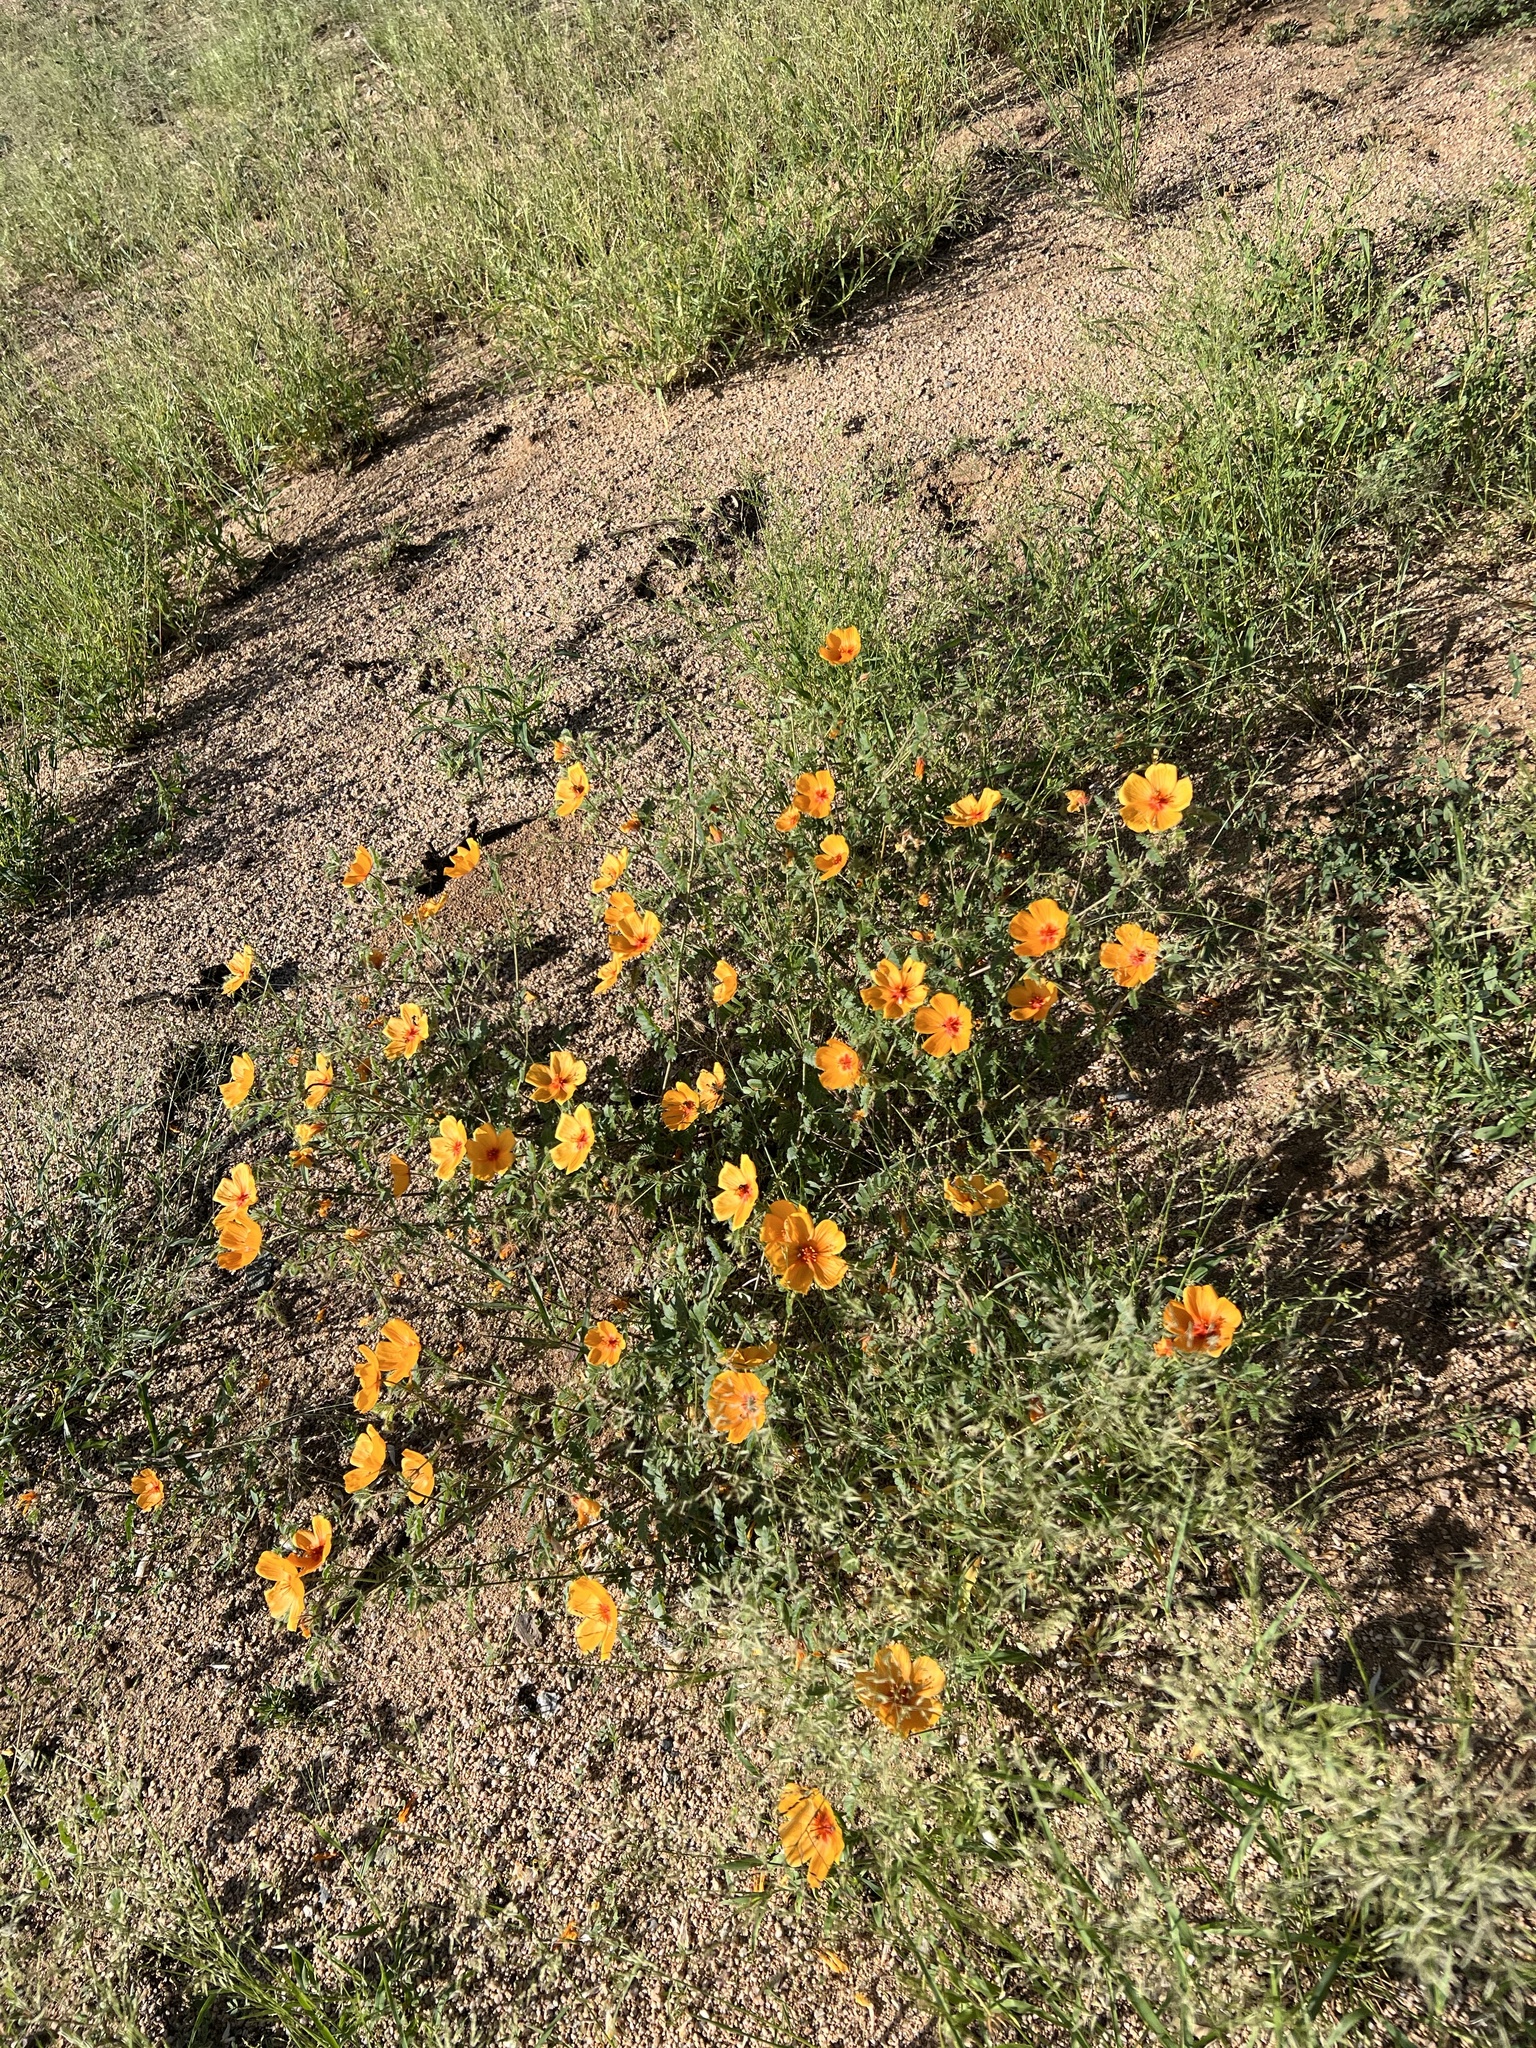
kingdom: Plantae
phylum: Tracheophyta
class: Magnoliopsida
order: Zygophyllales
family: Zygophyllaceae
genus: Kallstroemia
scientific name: Kallstroemia grandiflora
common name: Arizona-poppy
